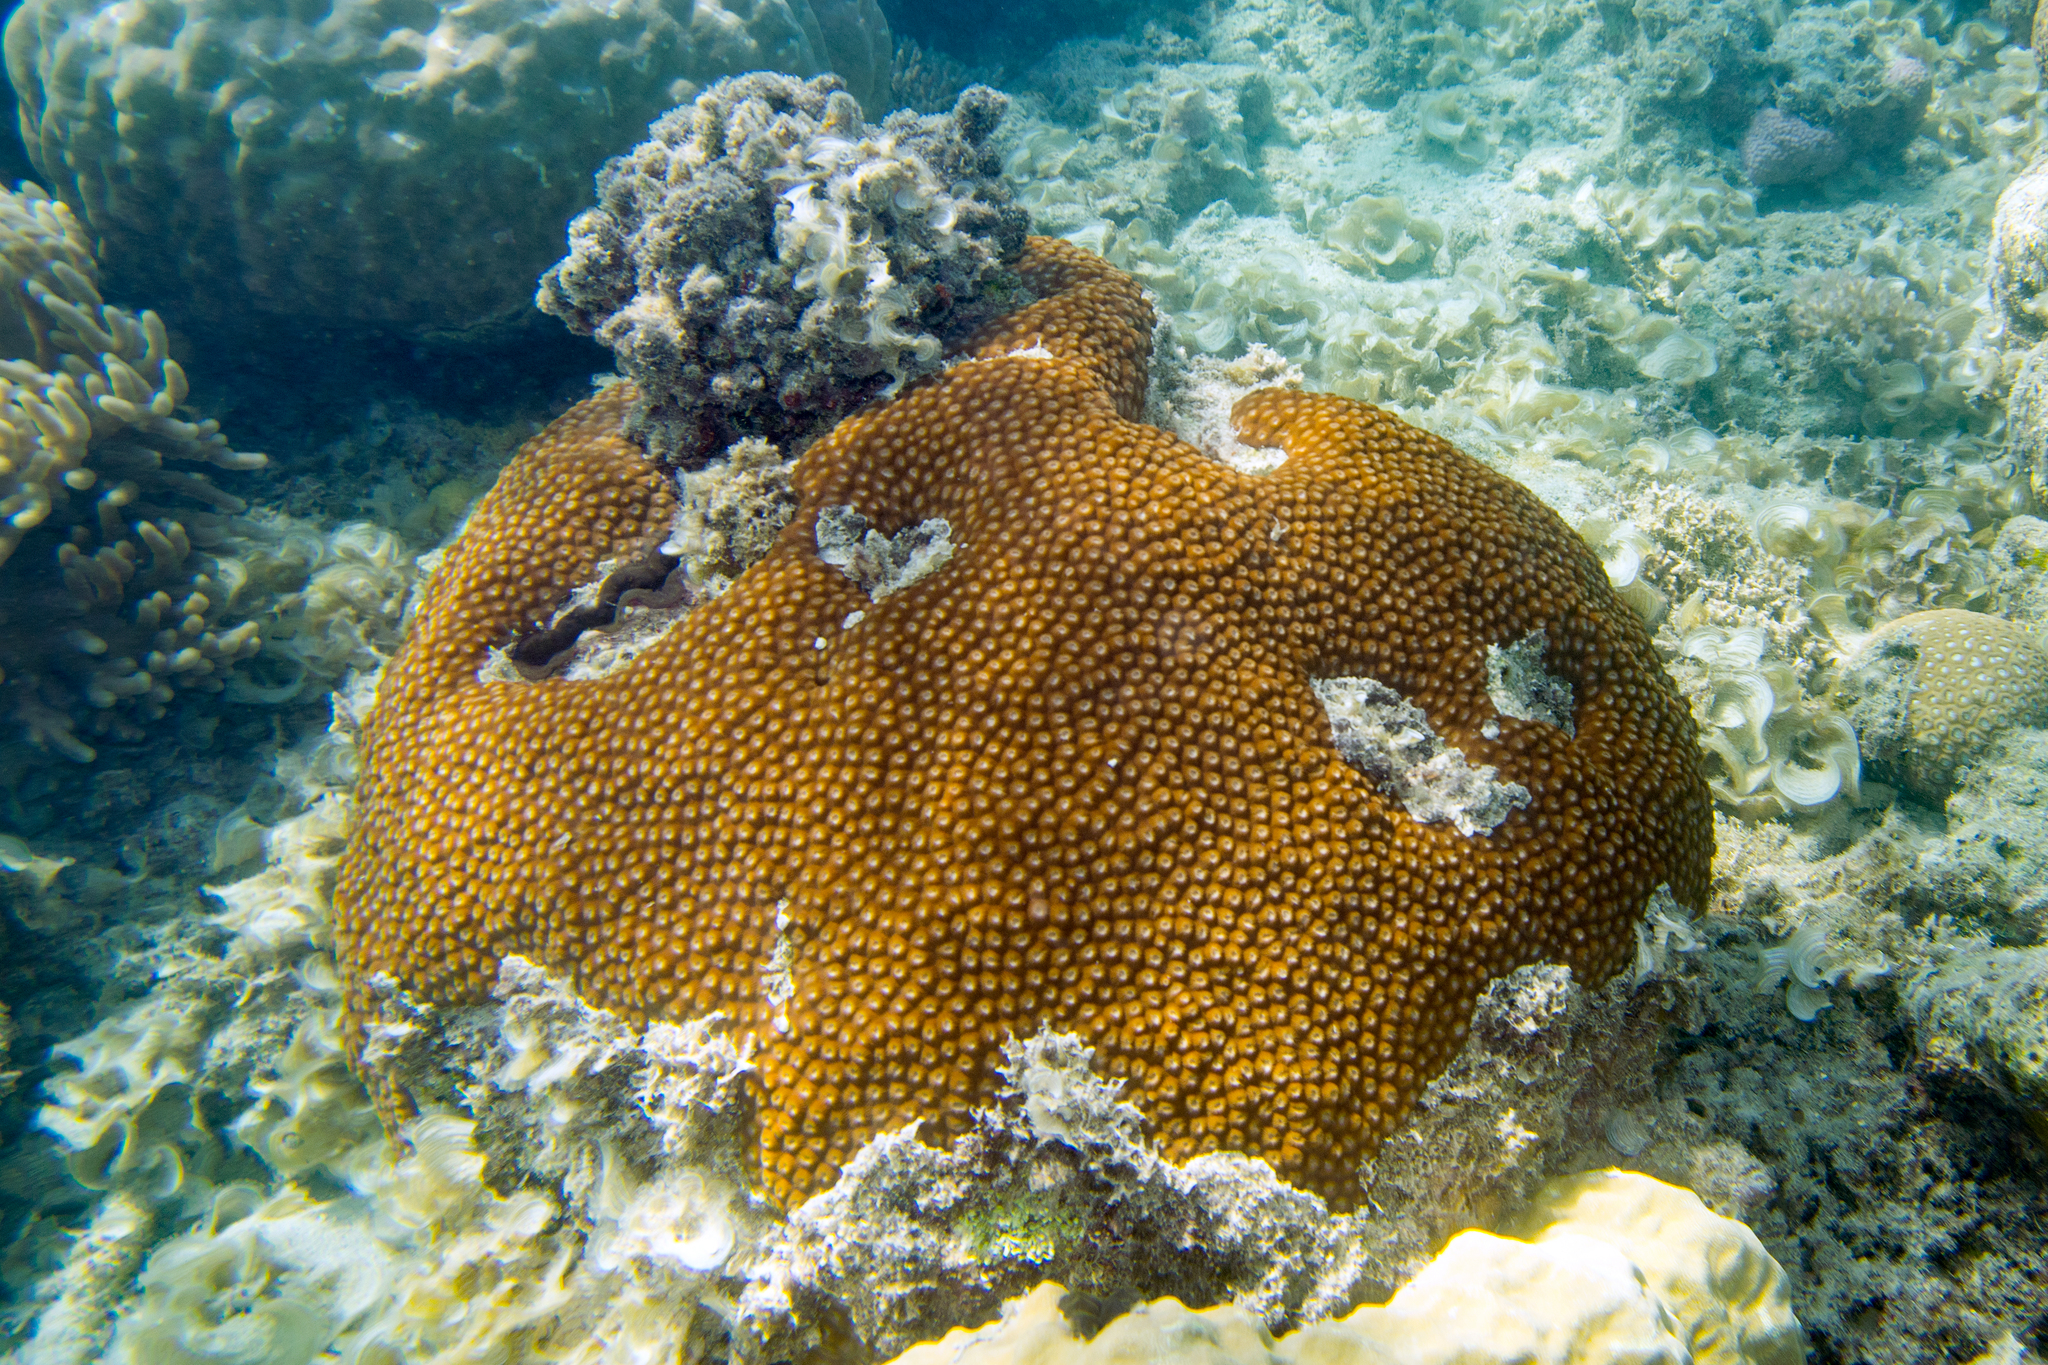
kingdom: Animalia
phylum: Cnidaria
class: Anthozoa
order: Scleractinia
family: Diploastraeidae
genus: Diploastrea
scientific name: Diploastrea heliopora
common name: Double-star coral
